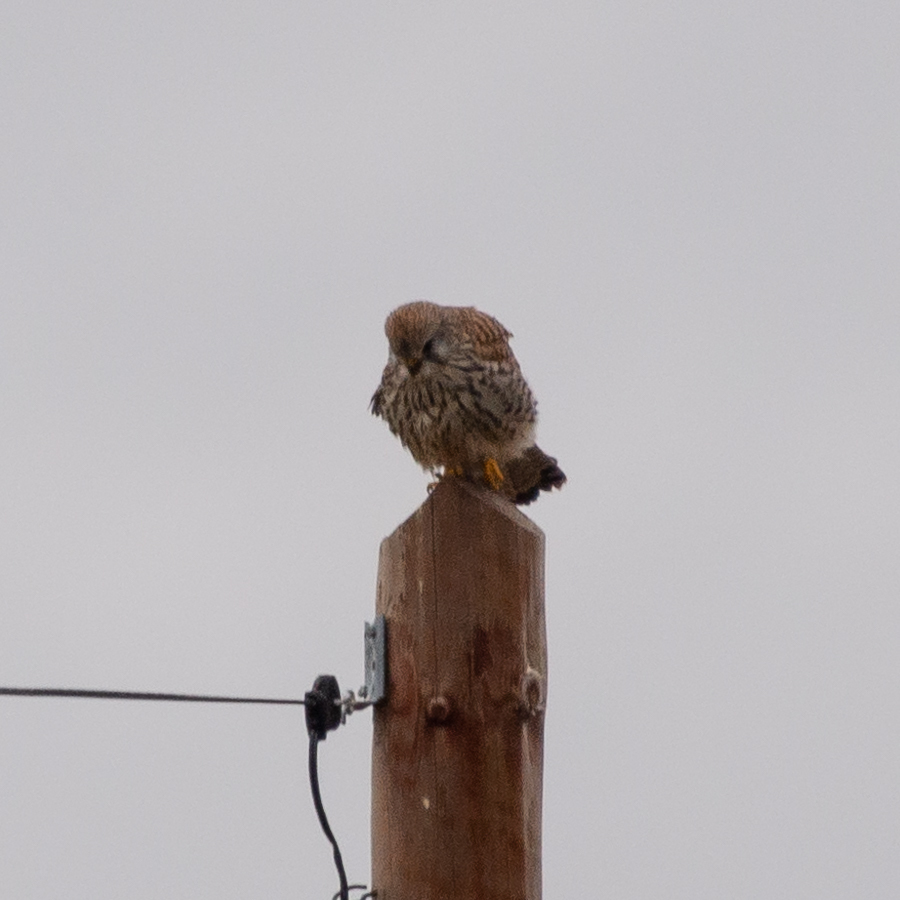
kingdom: Animalia
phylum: Chordata
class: Aves
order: Falconiformes
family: Falconidae
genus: Falco
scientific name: Falco tinnunculus
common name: Common kestrel
